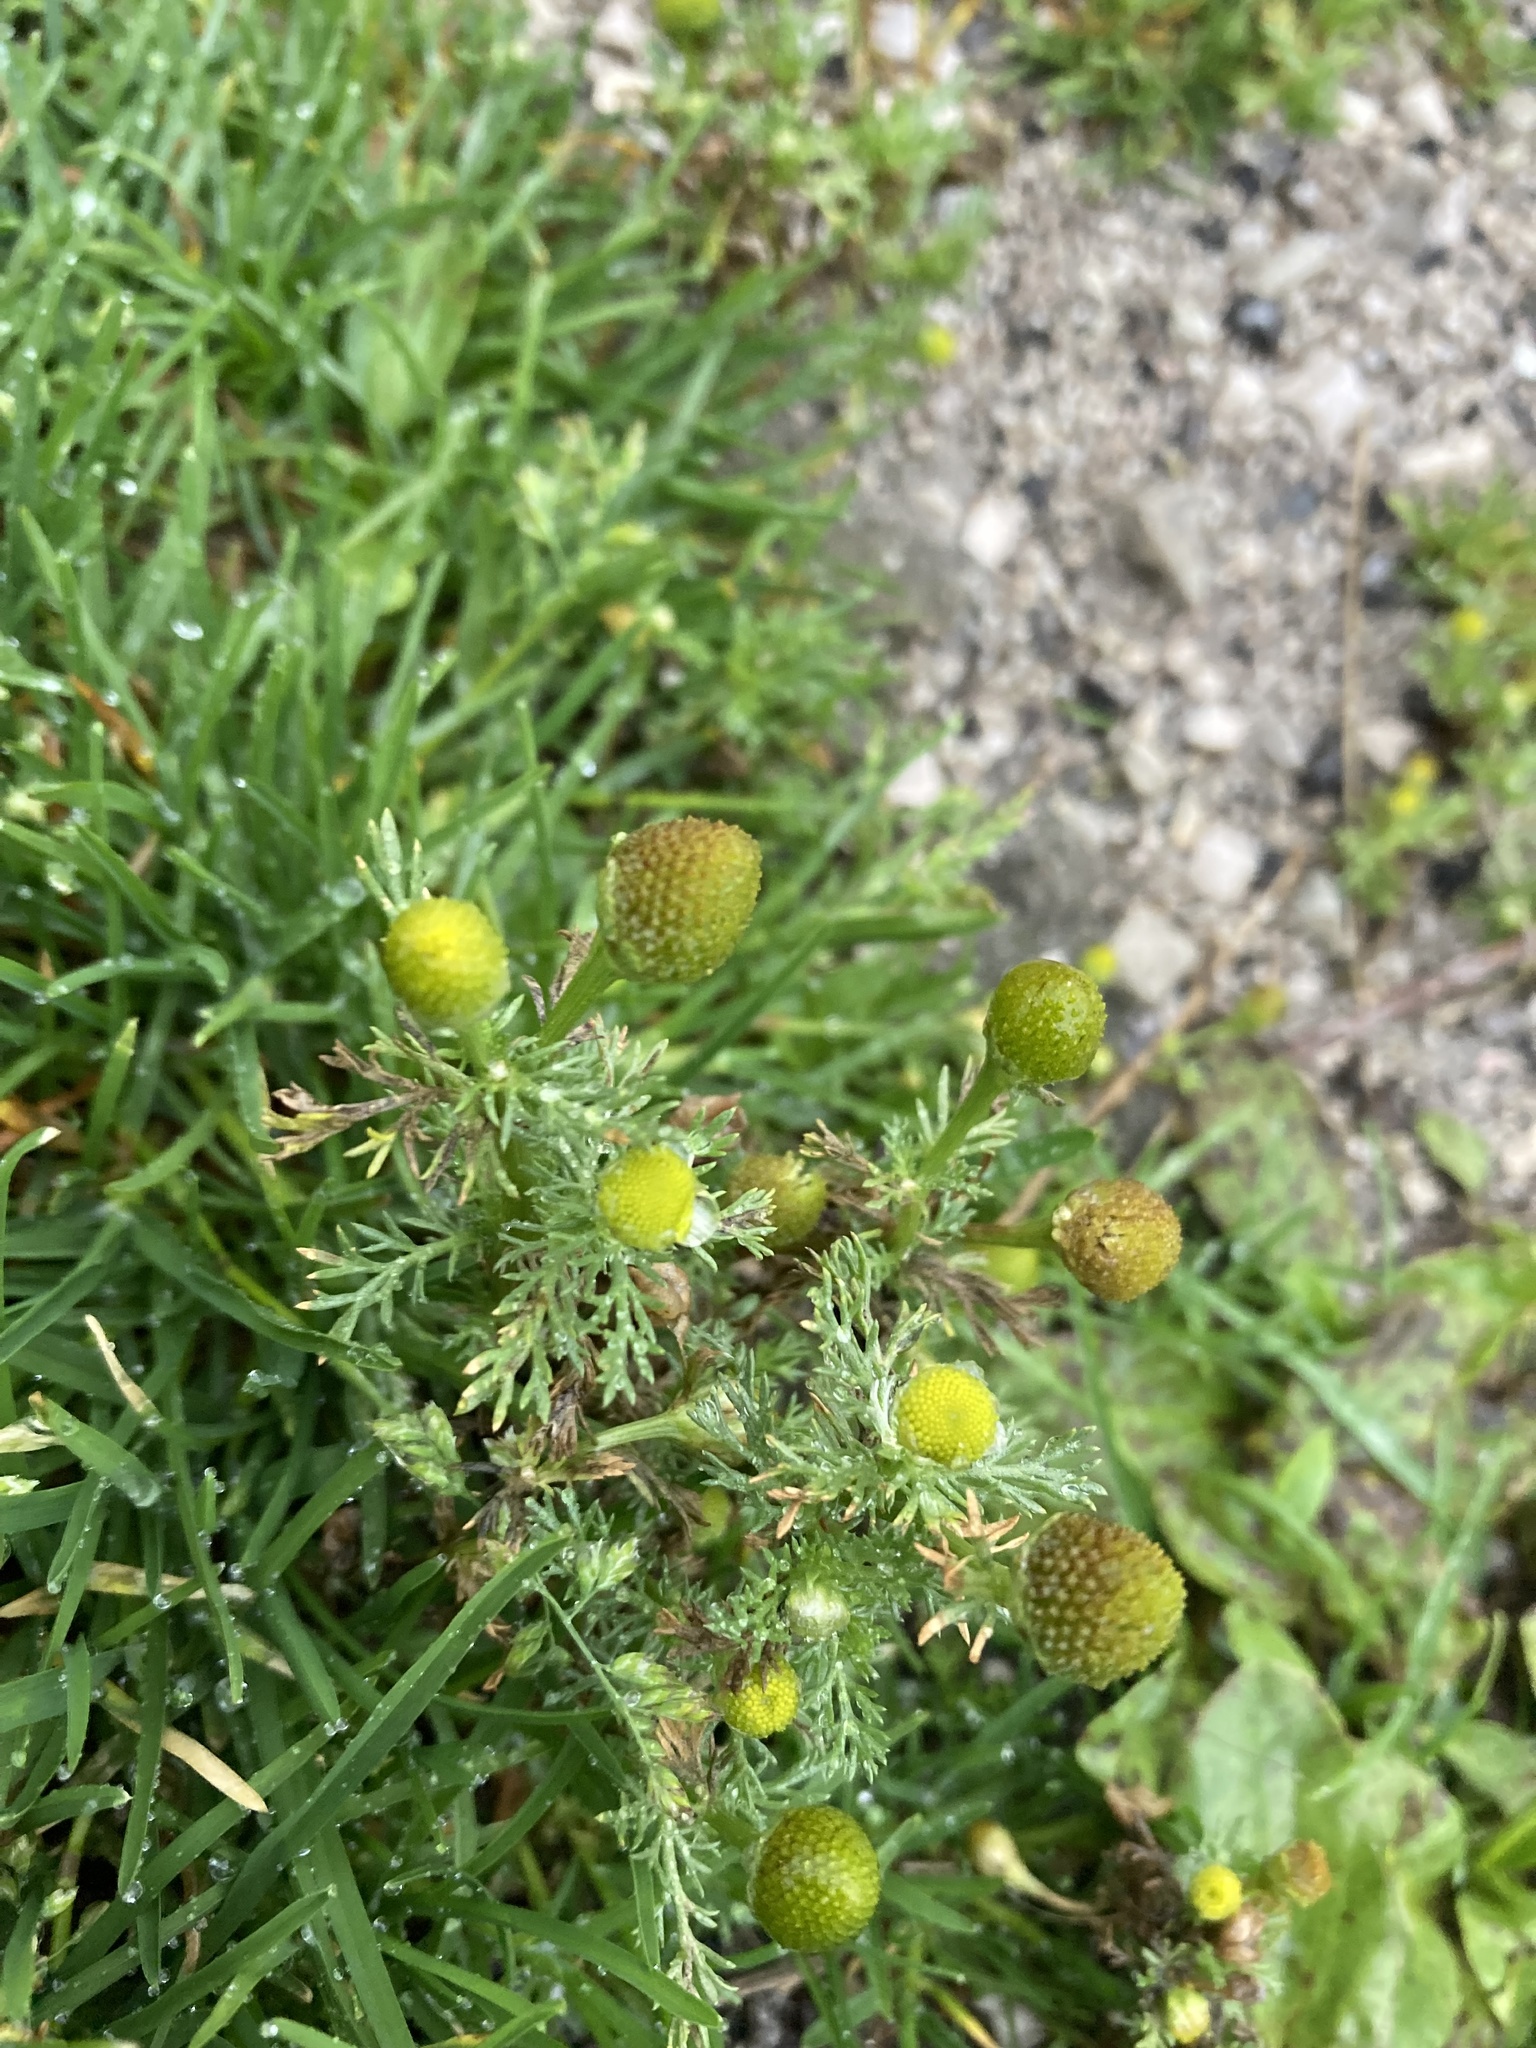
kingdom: Plantae
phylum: Tracheophyta
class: Magnoliopsida
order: Asterales
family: Asteraceae
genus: Matricaria
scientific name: Matricaria discoidea
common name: Disc mayweed
